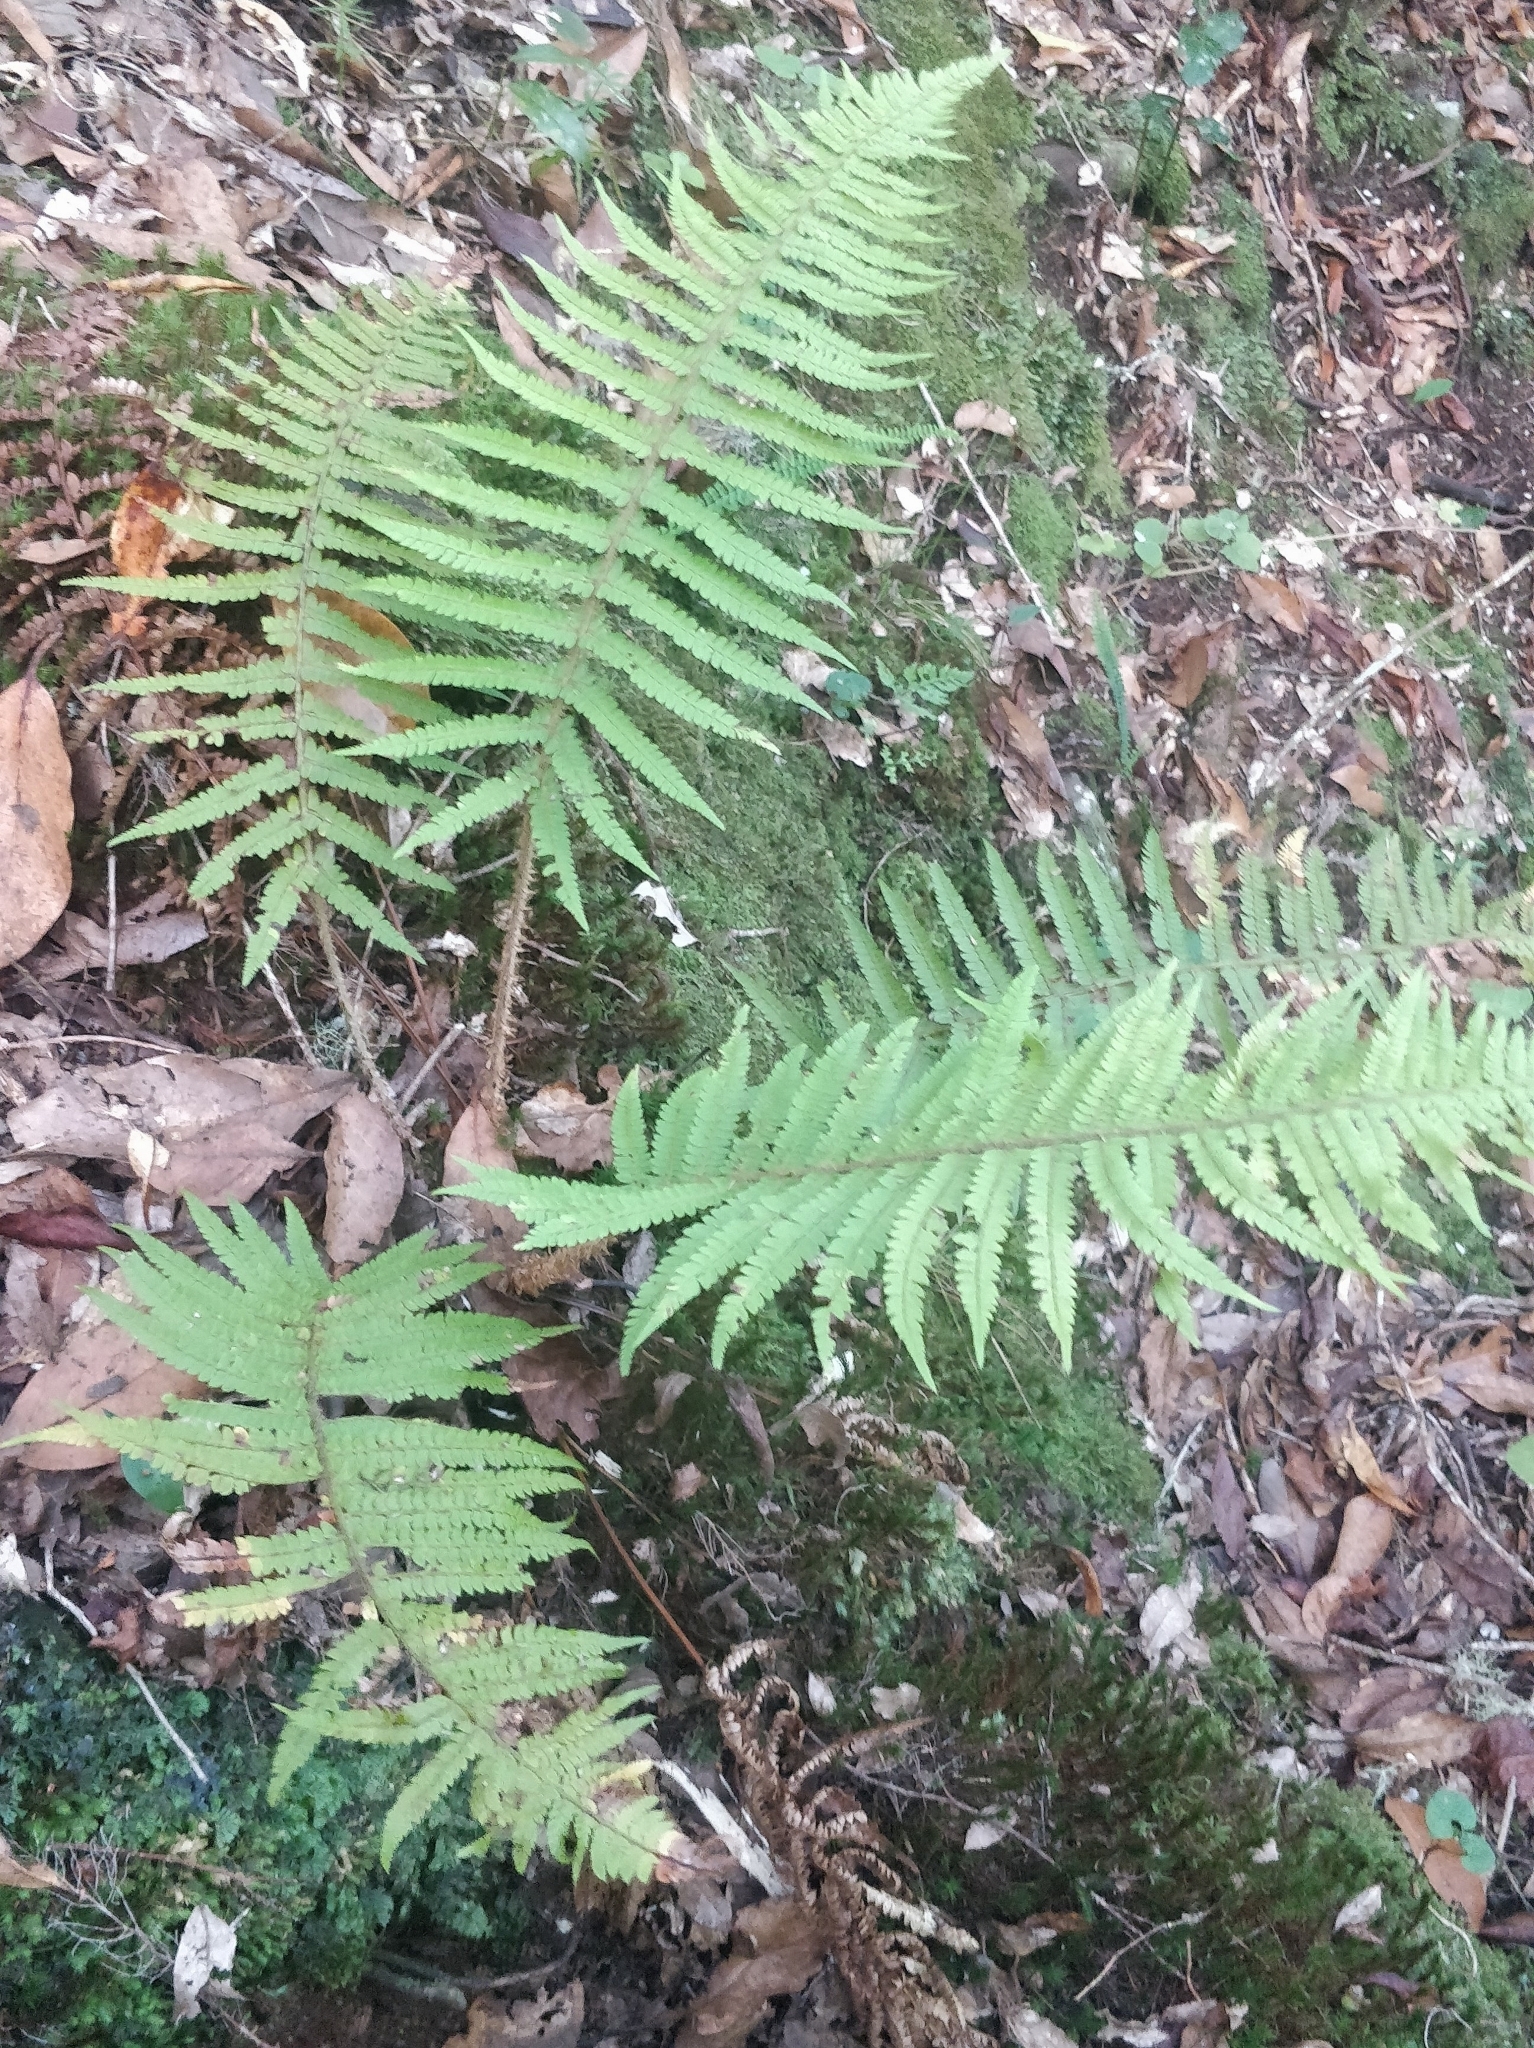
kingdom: Plantae
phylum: Tracheophyta
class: Polypodiopsida
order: Polypodiales
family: Dryopteridaceae
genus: Polystichum
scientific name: Polystichum setiferum
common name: Soft shield-fern
